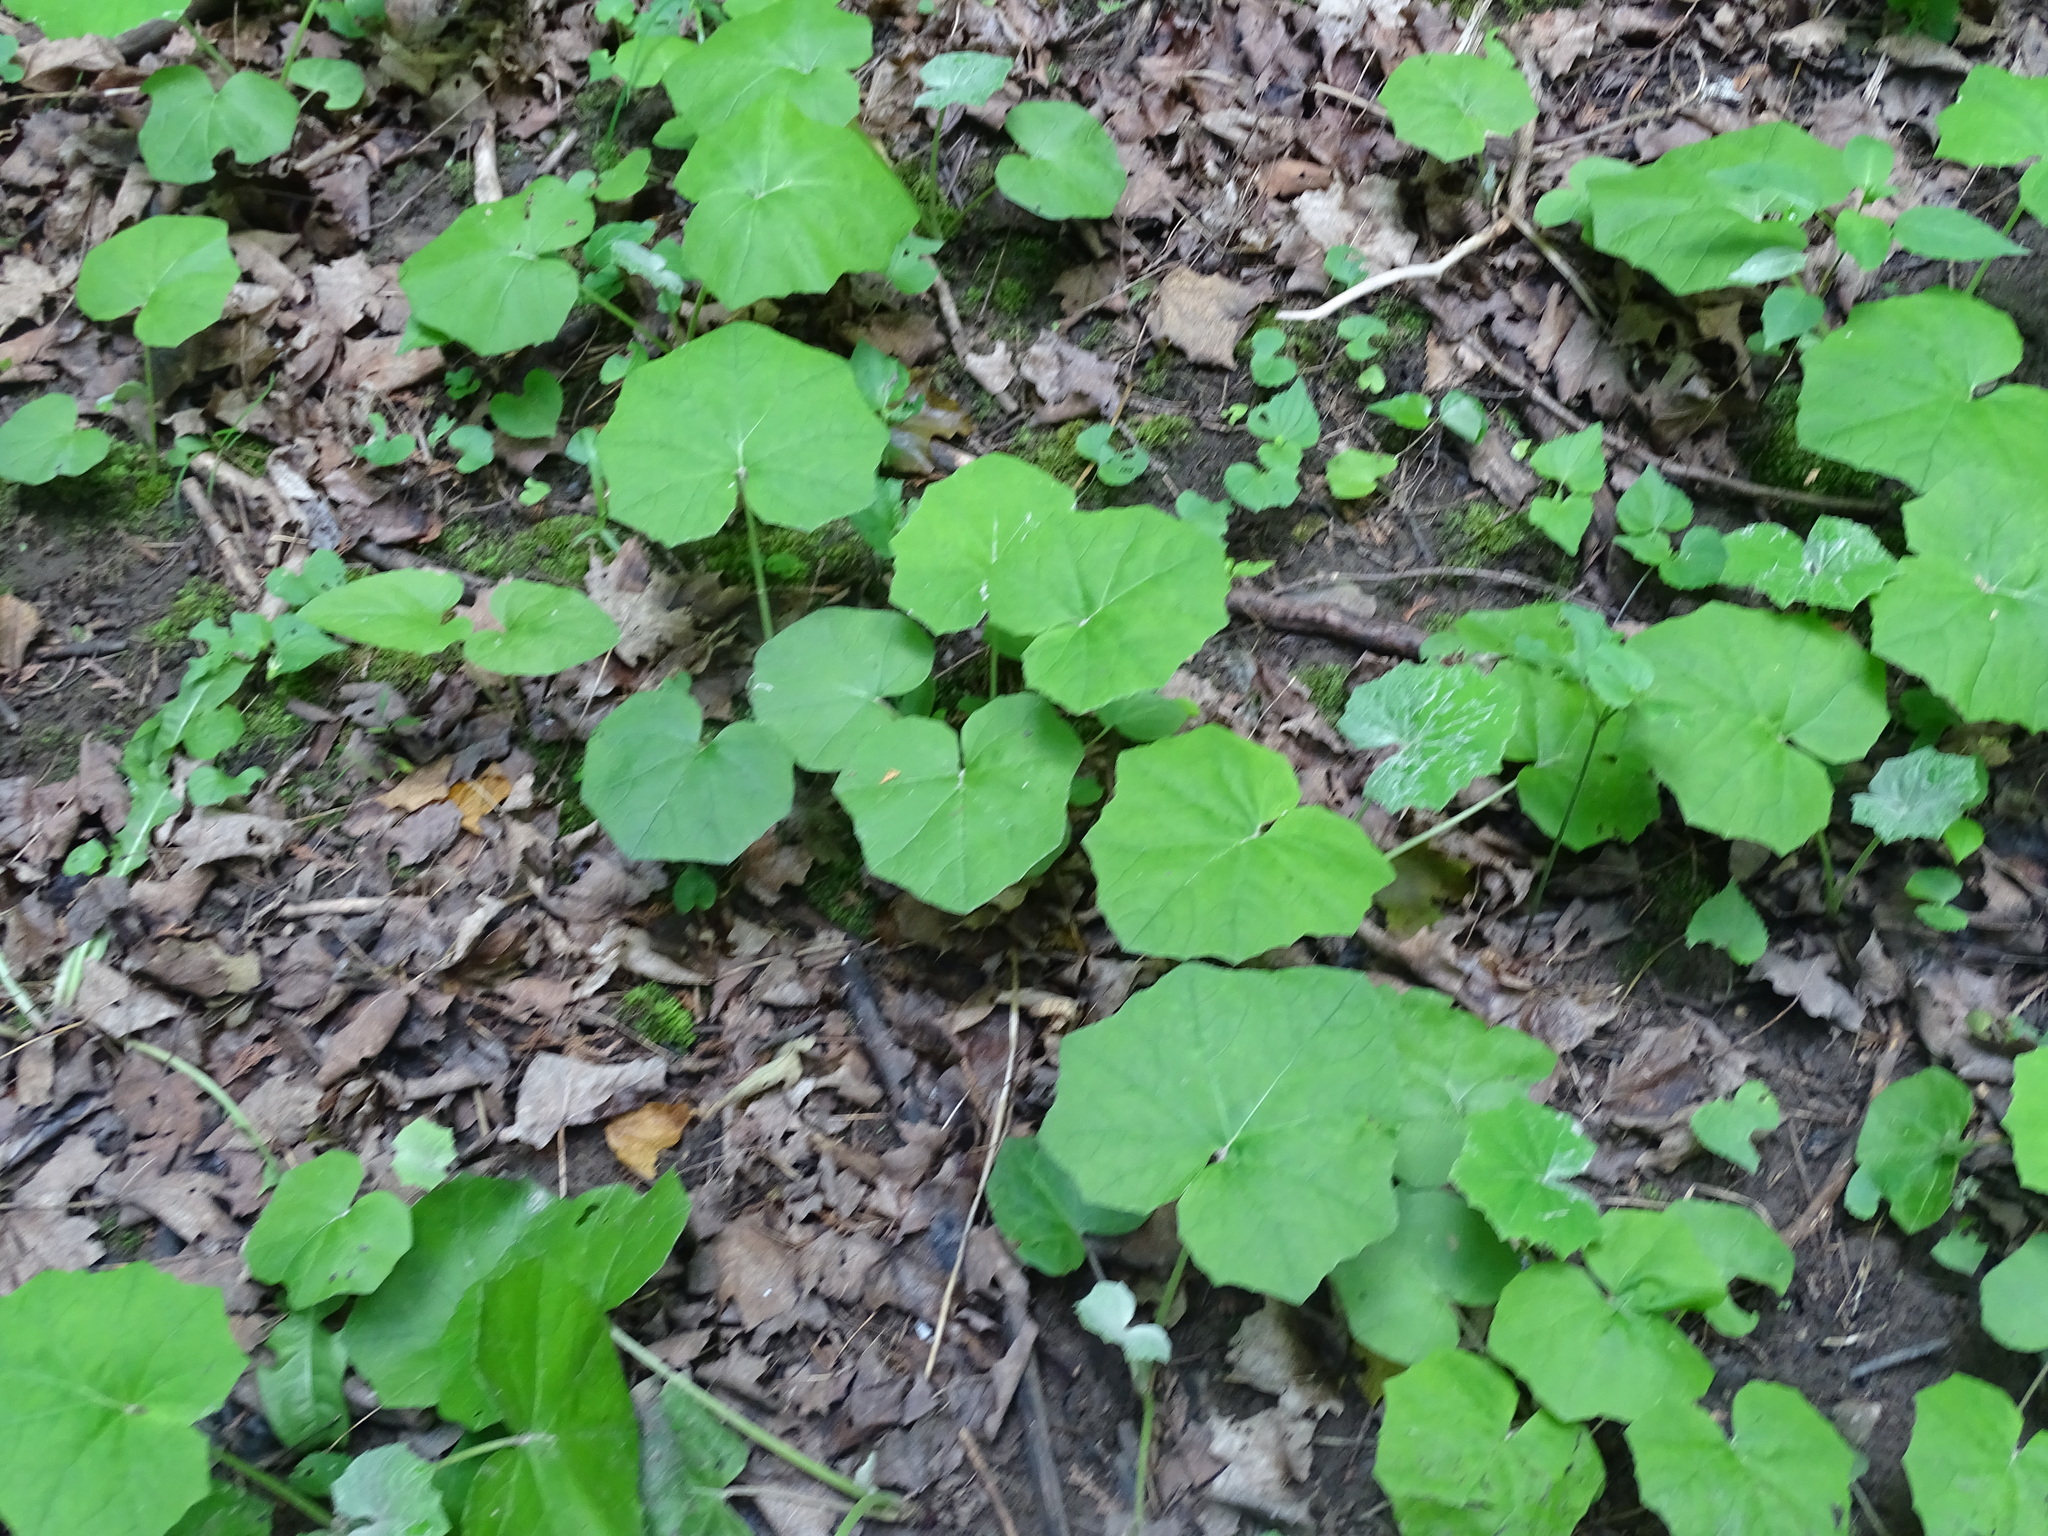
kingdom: Plantae
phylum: Tracheophyta
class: Magnoliopsida
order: Asterales
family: Asteraceae
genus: Tussilago
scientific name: Tussilago farfara
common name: Coltsfoot
